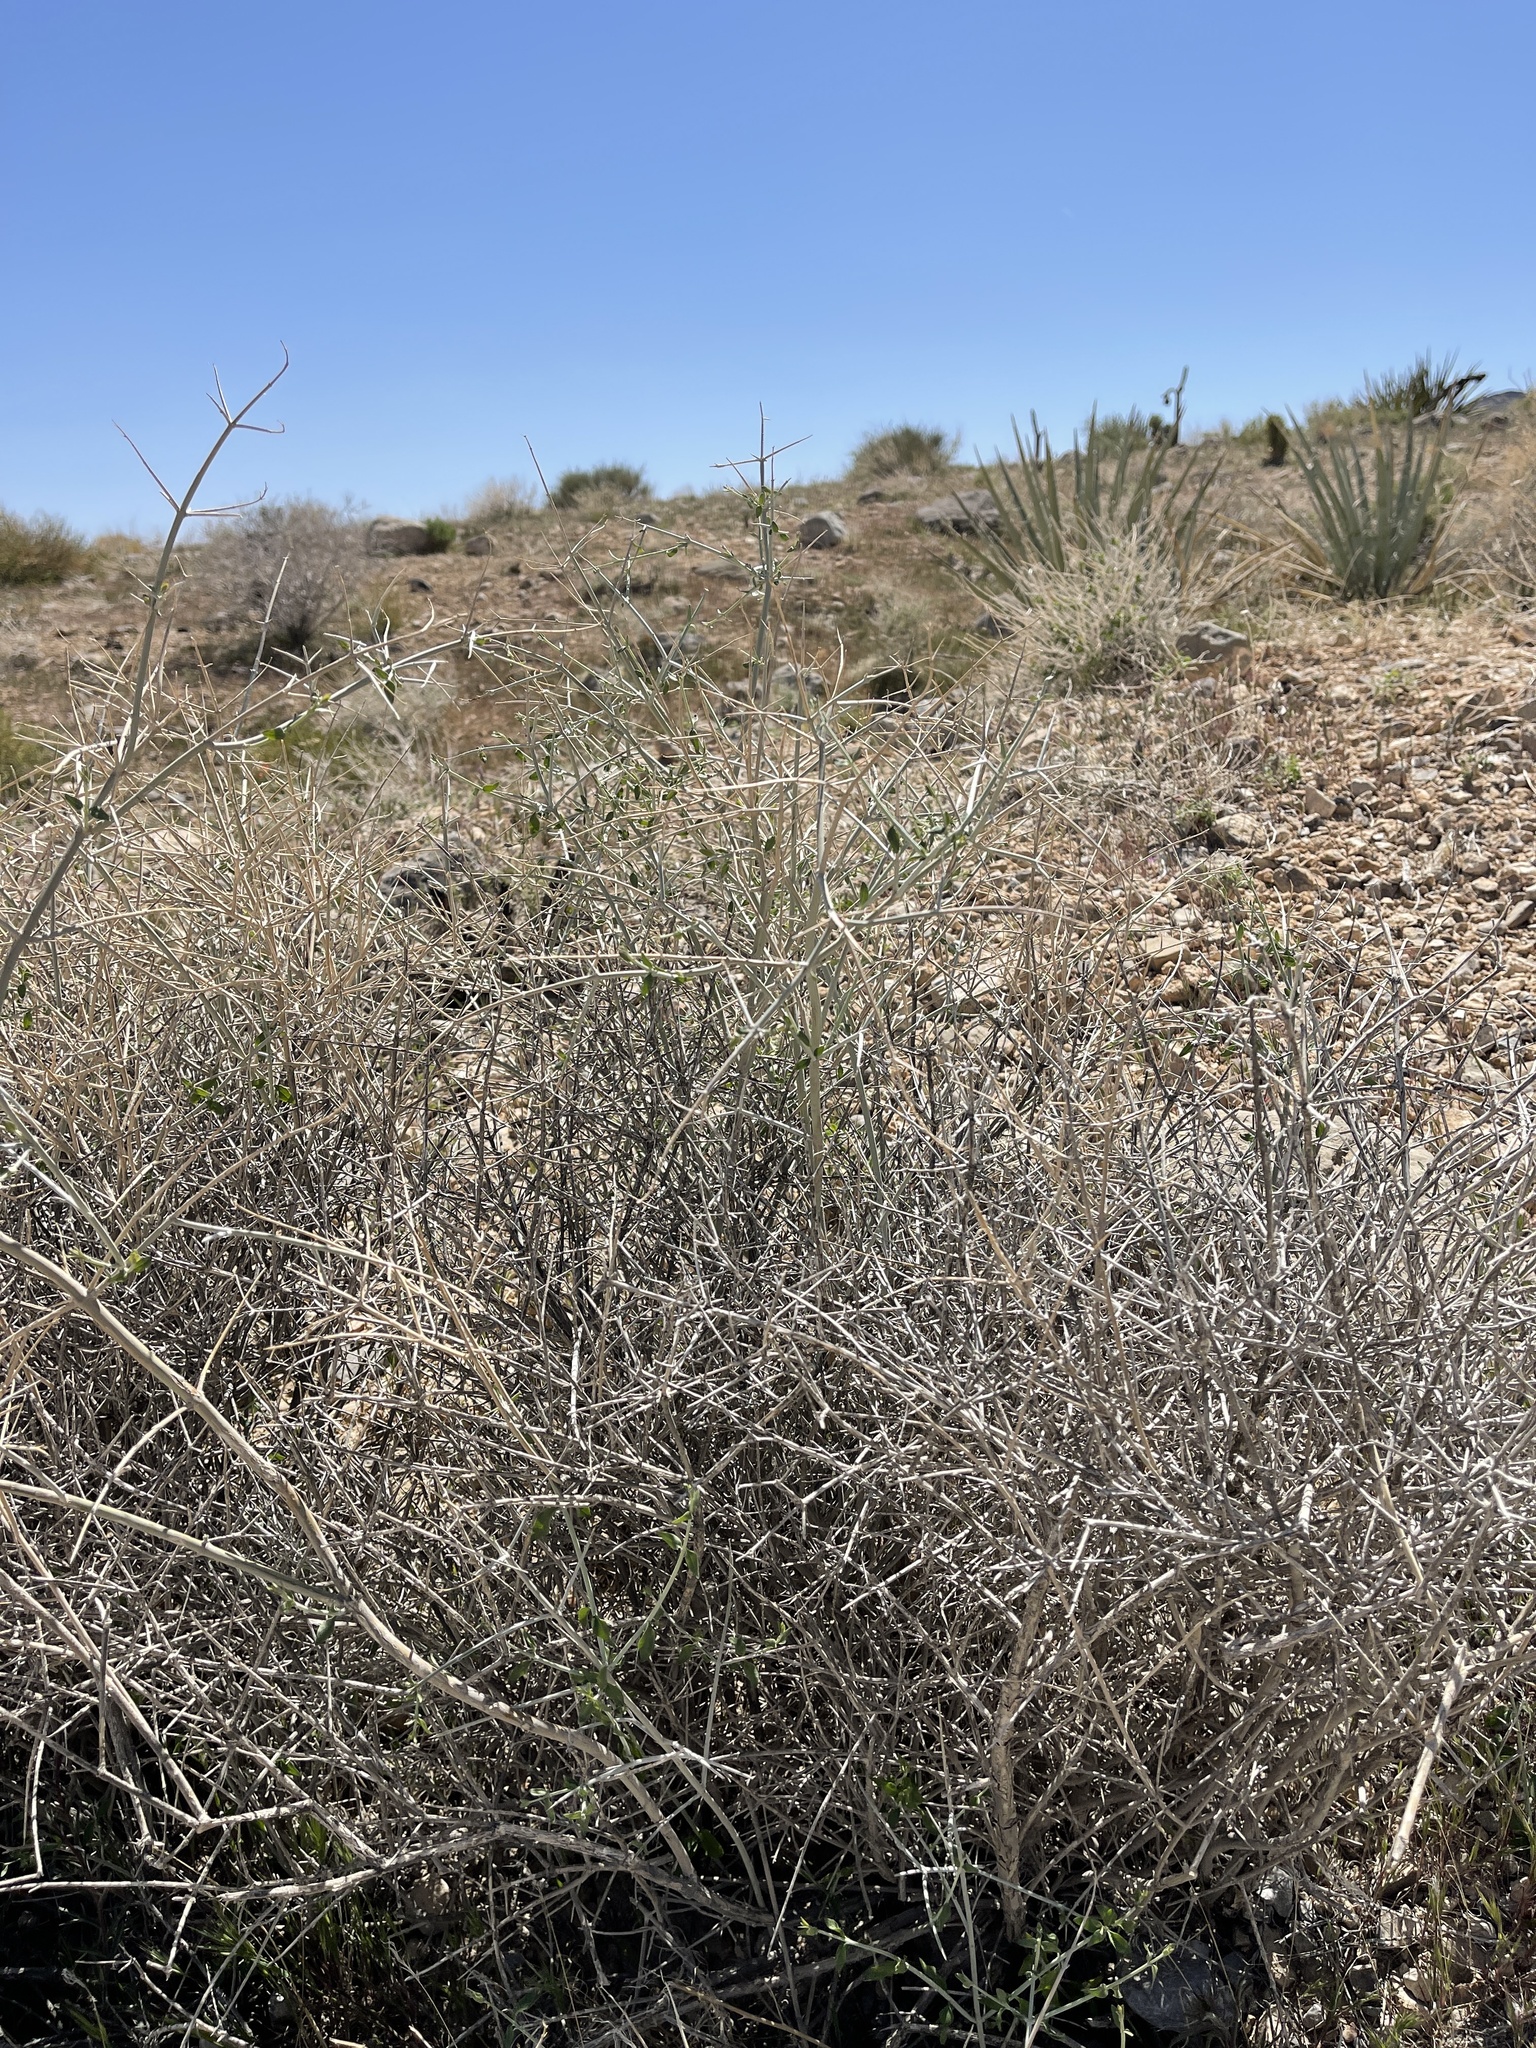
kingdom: Plantae
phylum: Tracheophyta
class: Magnoliopsida
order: Lamiales
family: Lamiaceae
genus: Scutellaria
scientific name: Scutellaria mexicana
